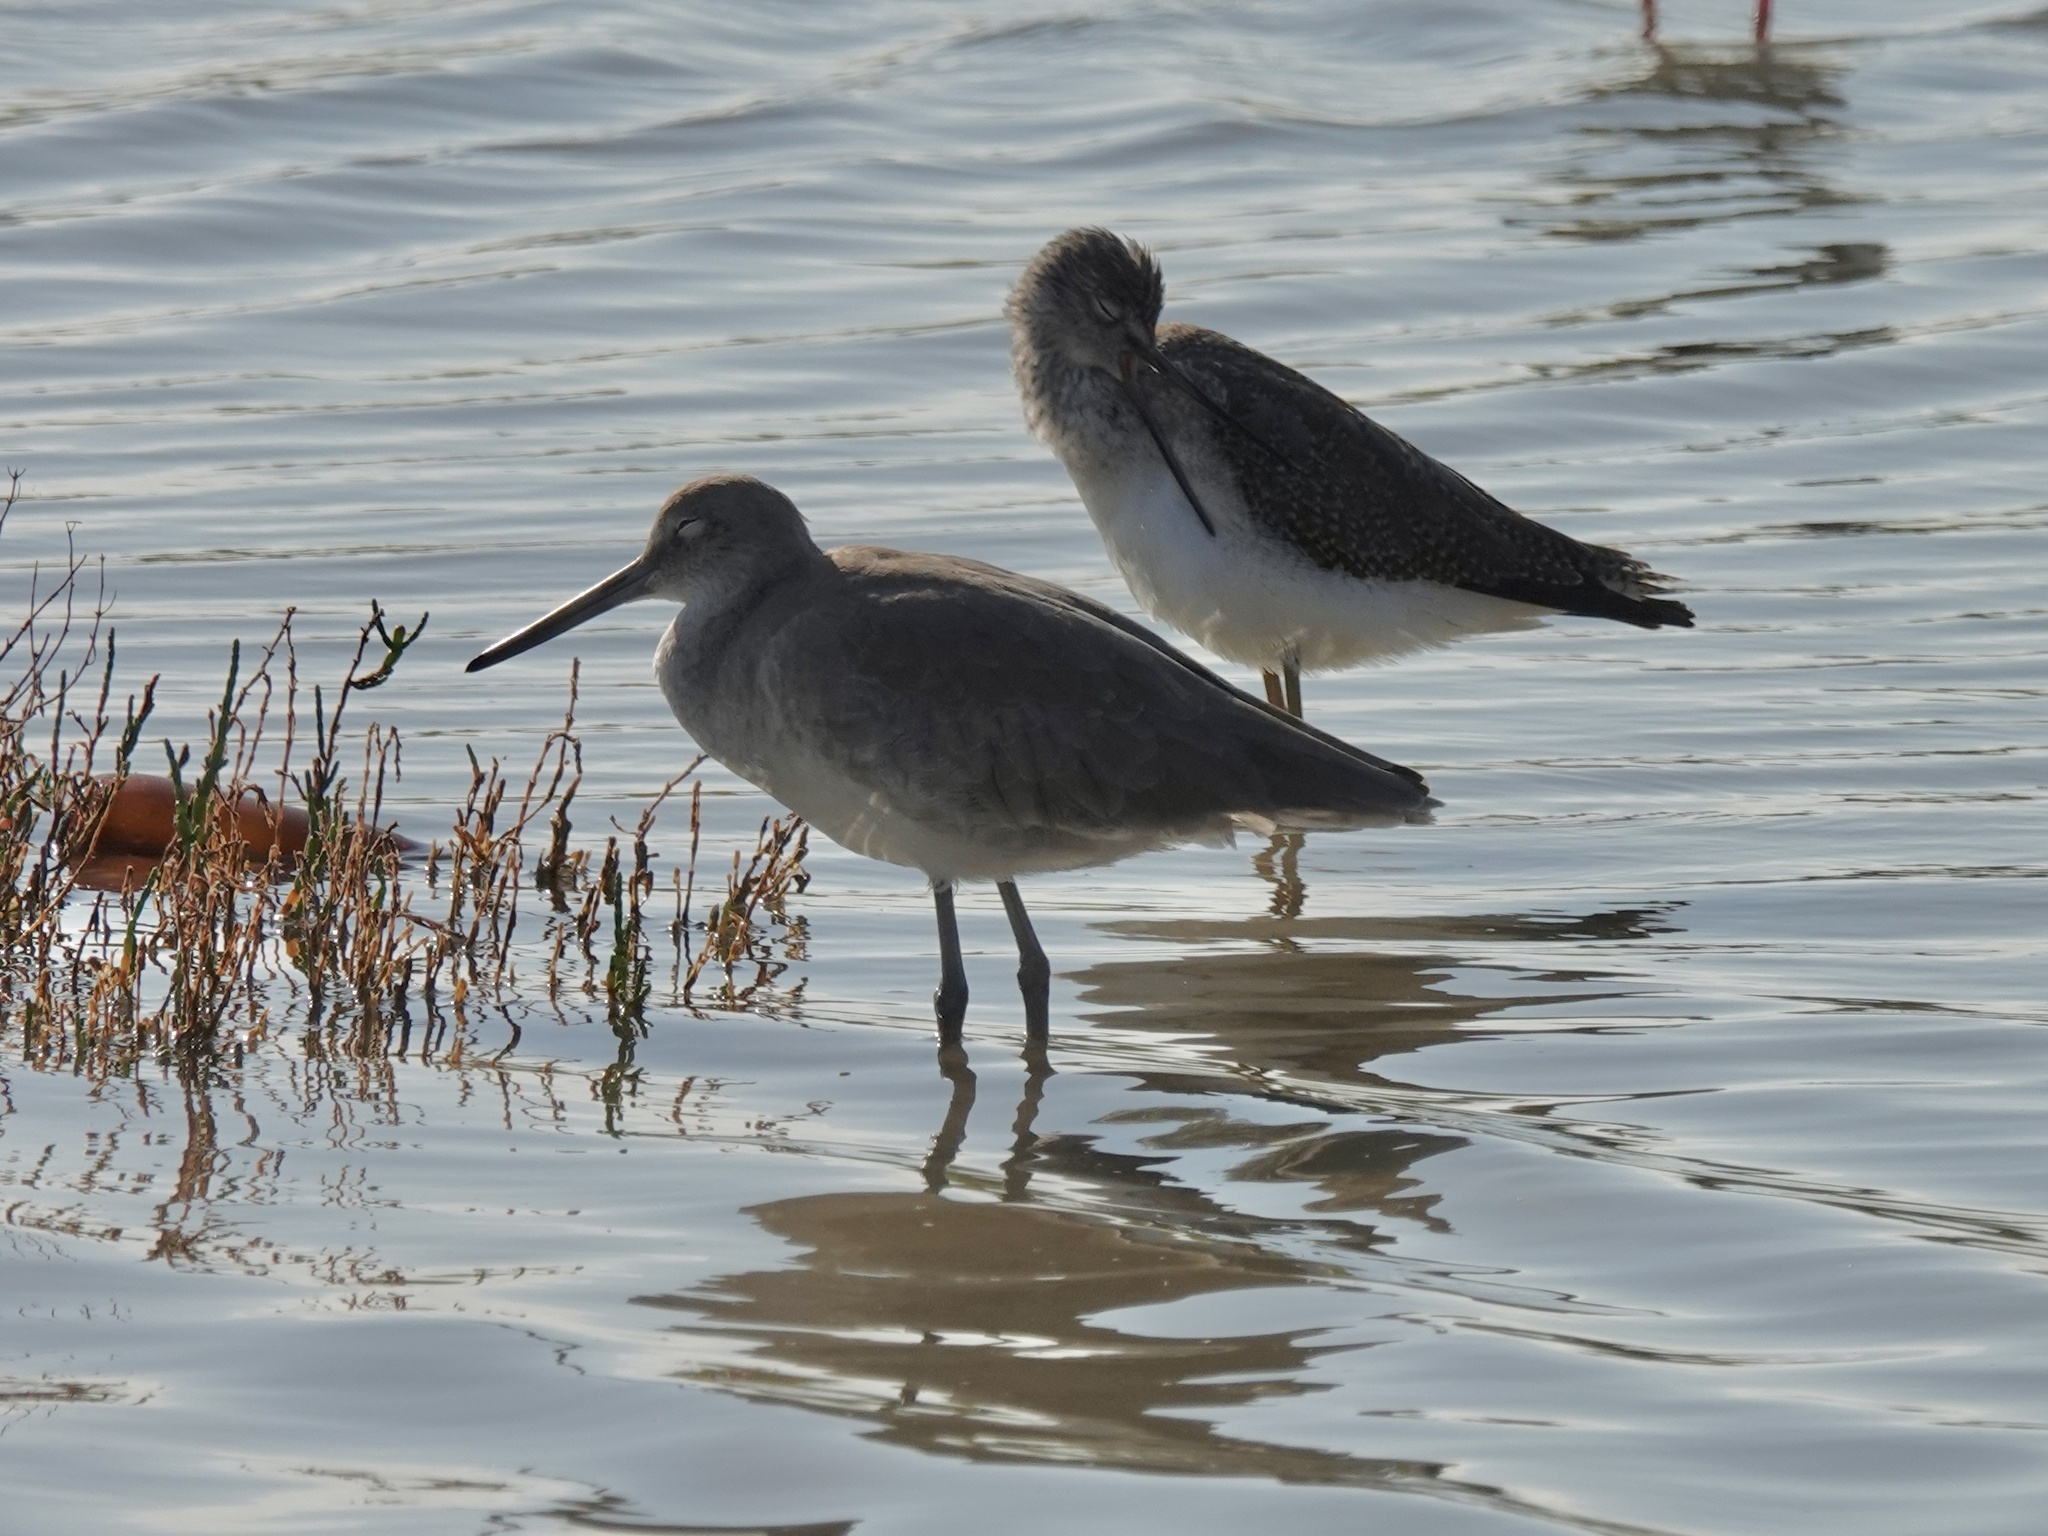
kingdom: Animalia
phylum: Chordata
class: Aves
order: Charadriiformes
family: Scolopacidae
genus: Tringa
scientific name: Tringa semipalmata
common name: Willet
